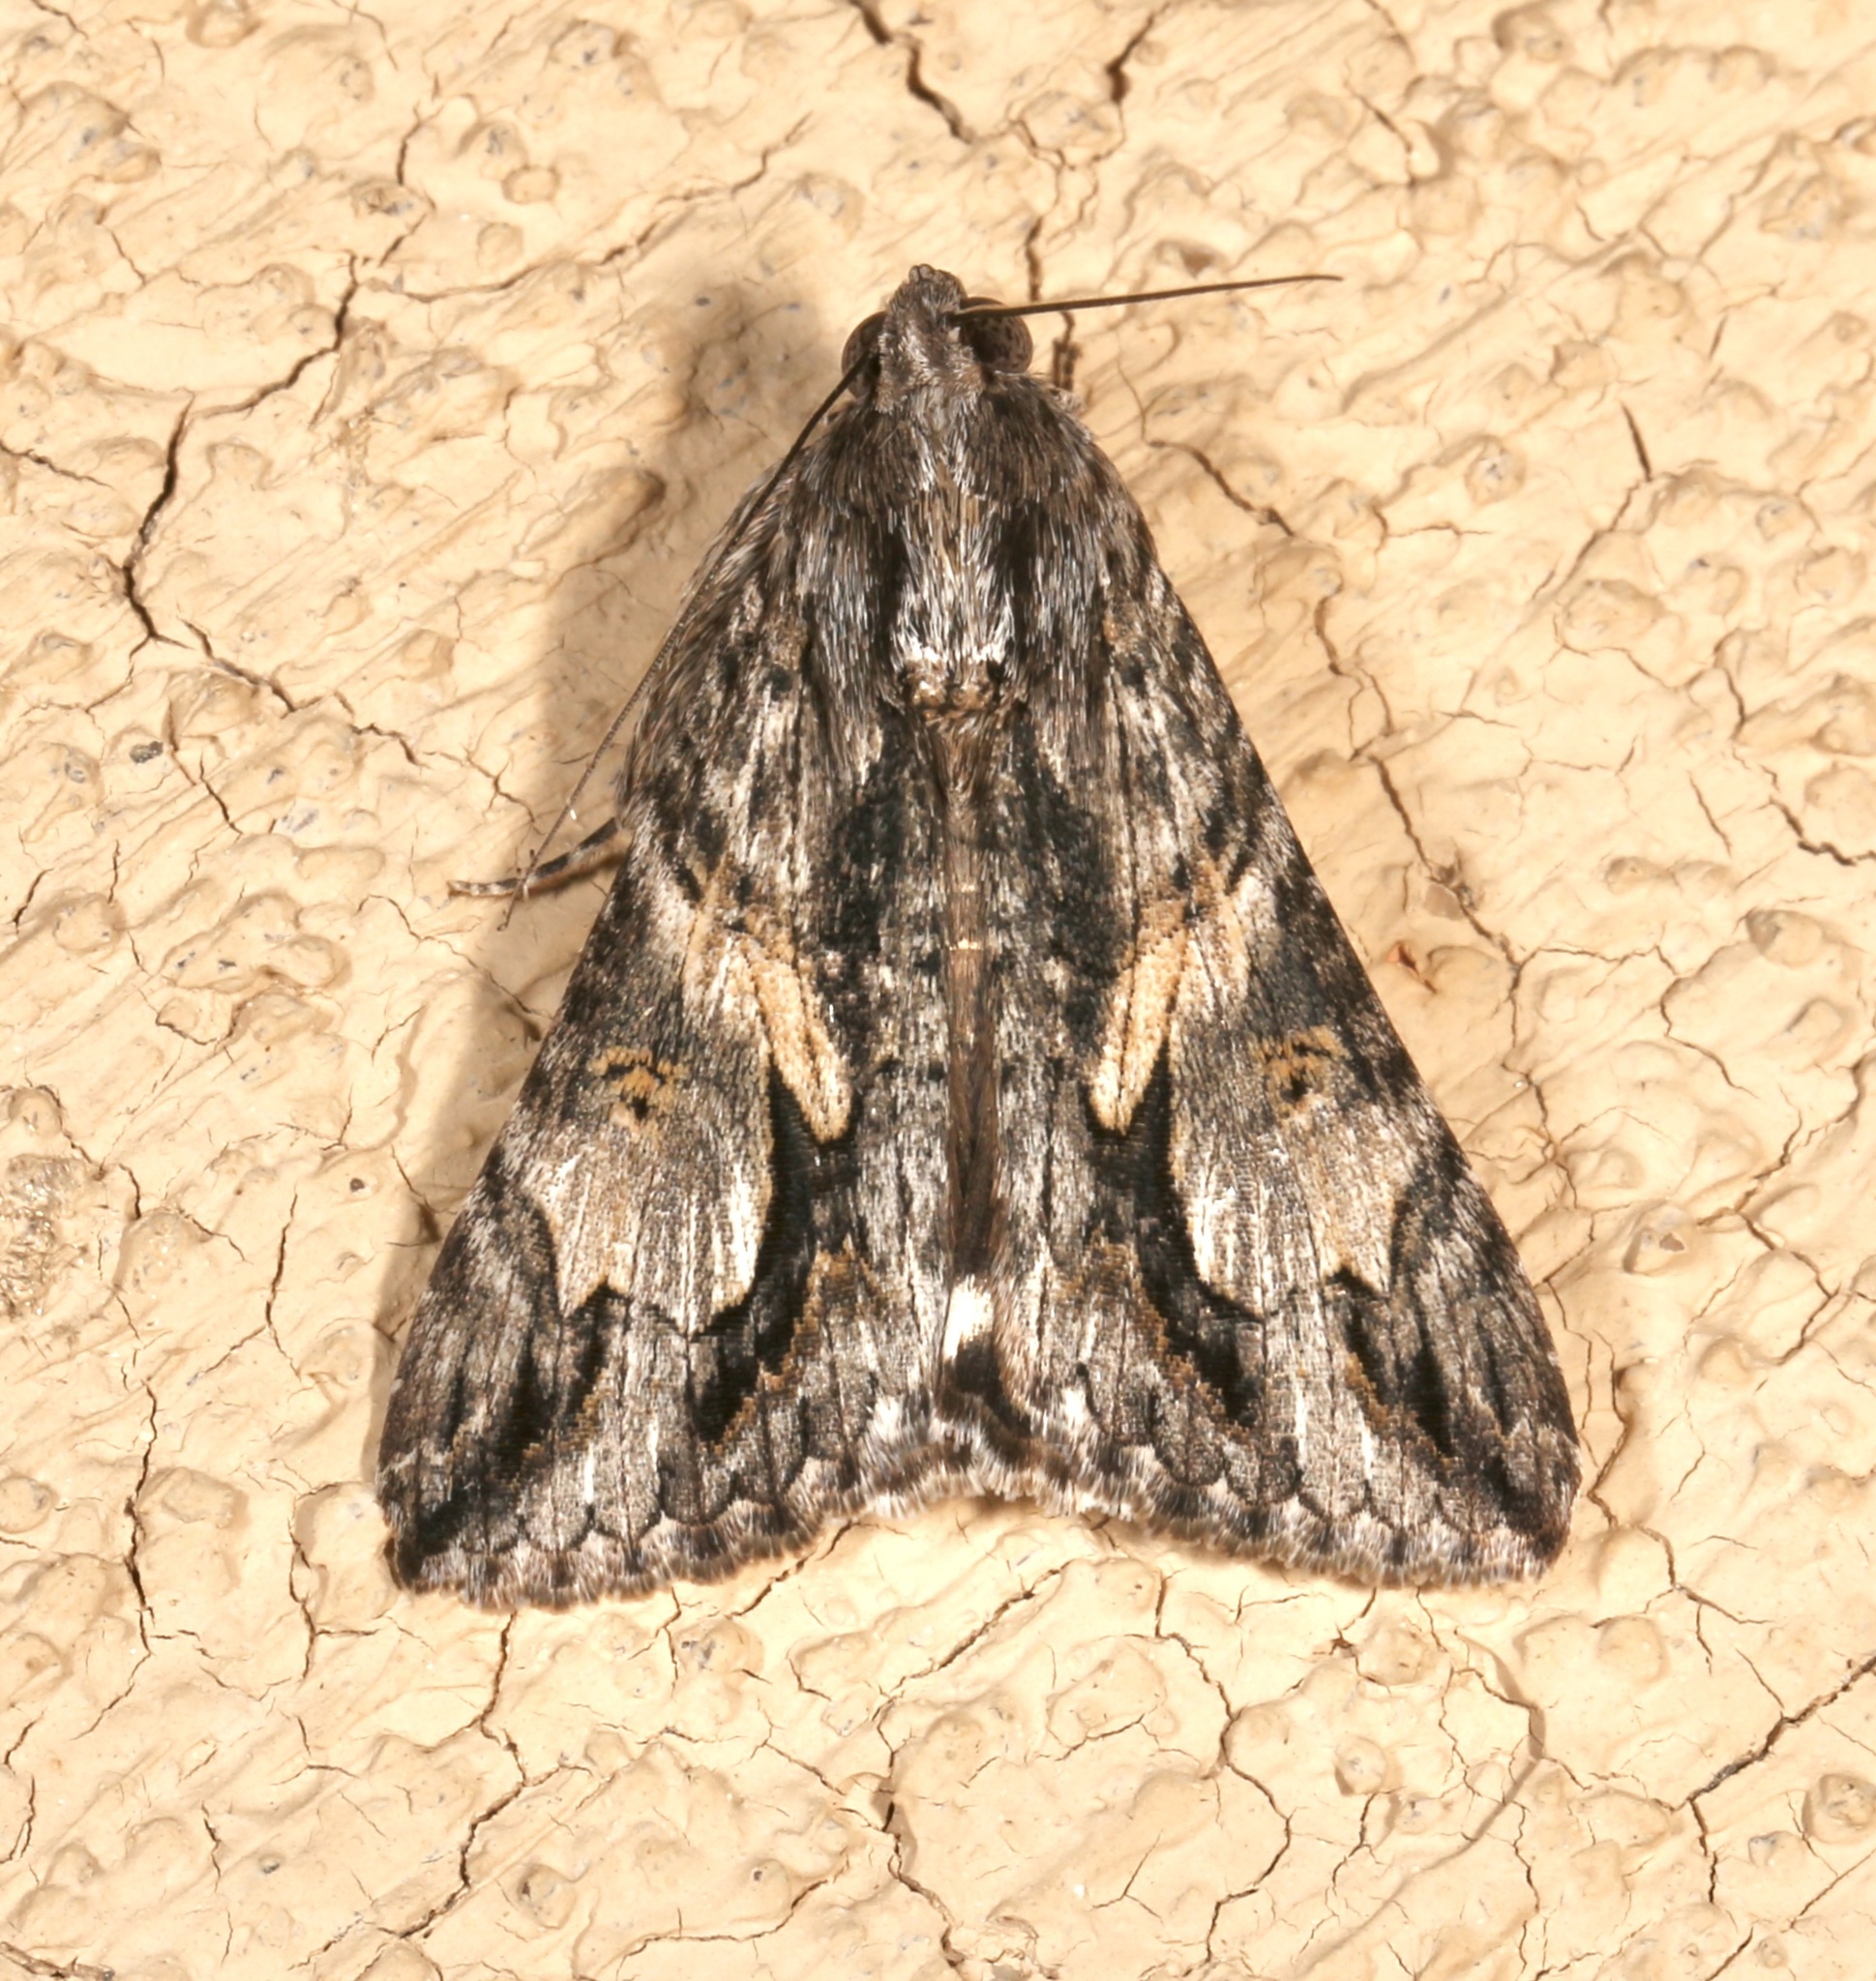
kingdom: Animalia
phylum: Arthropoda
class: Insecta
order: Lepidoptera
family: Erebidae
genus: Melipotis
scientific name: Melipotis jucunda
